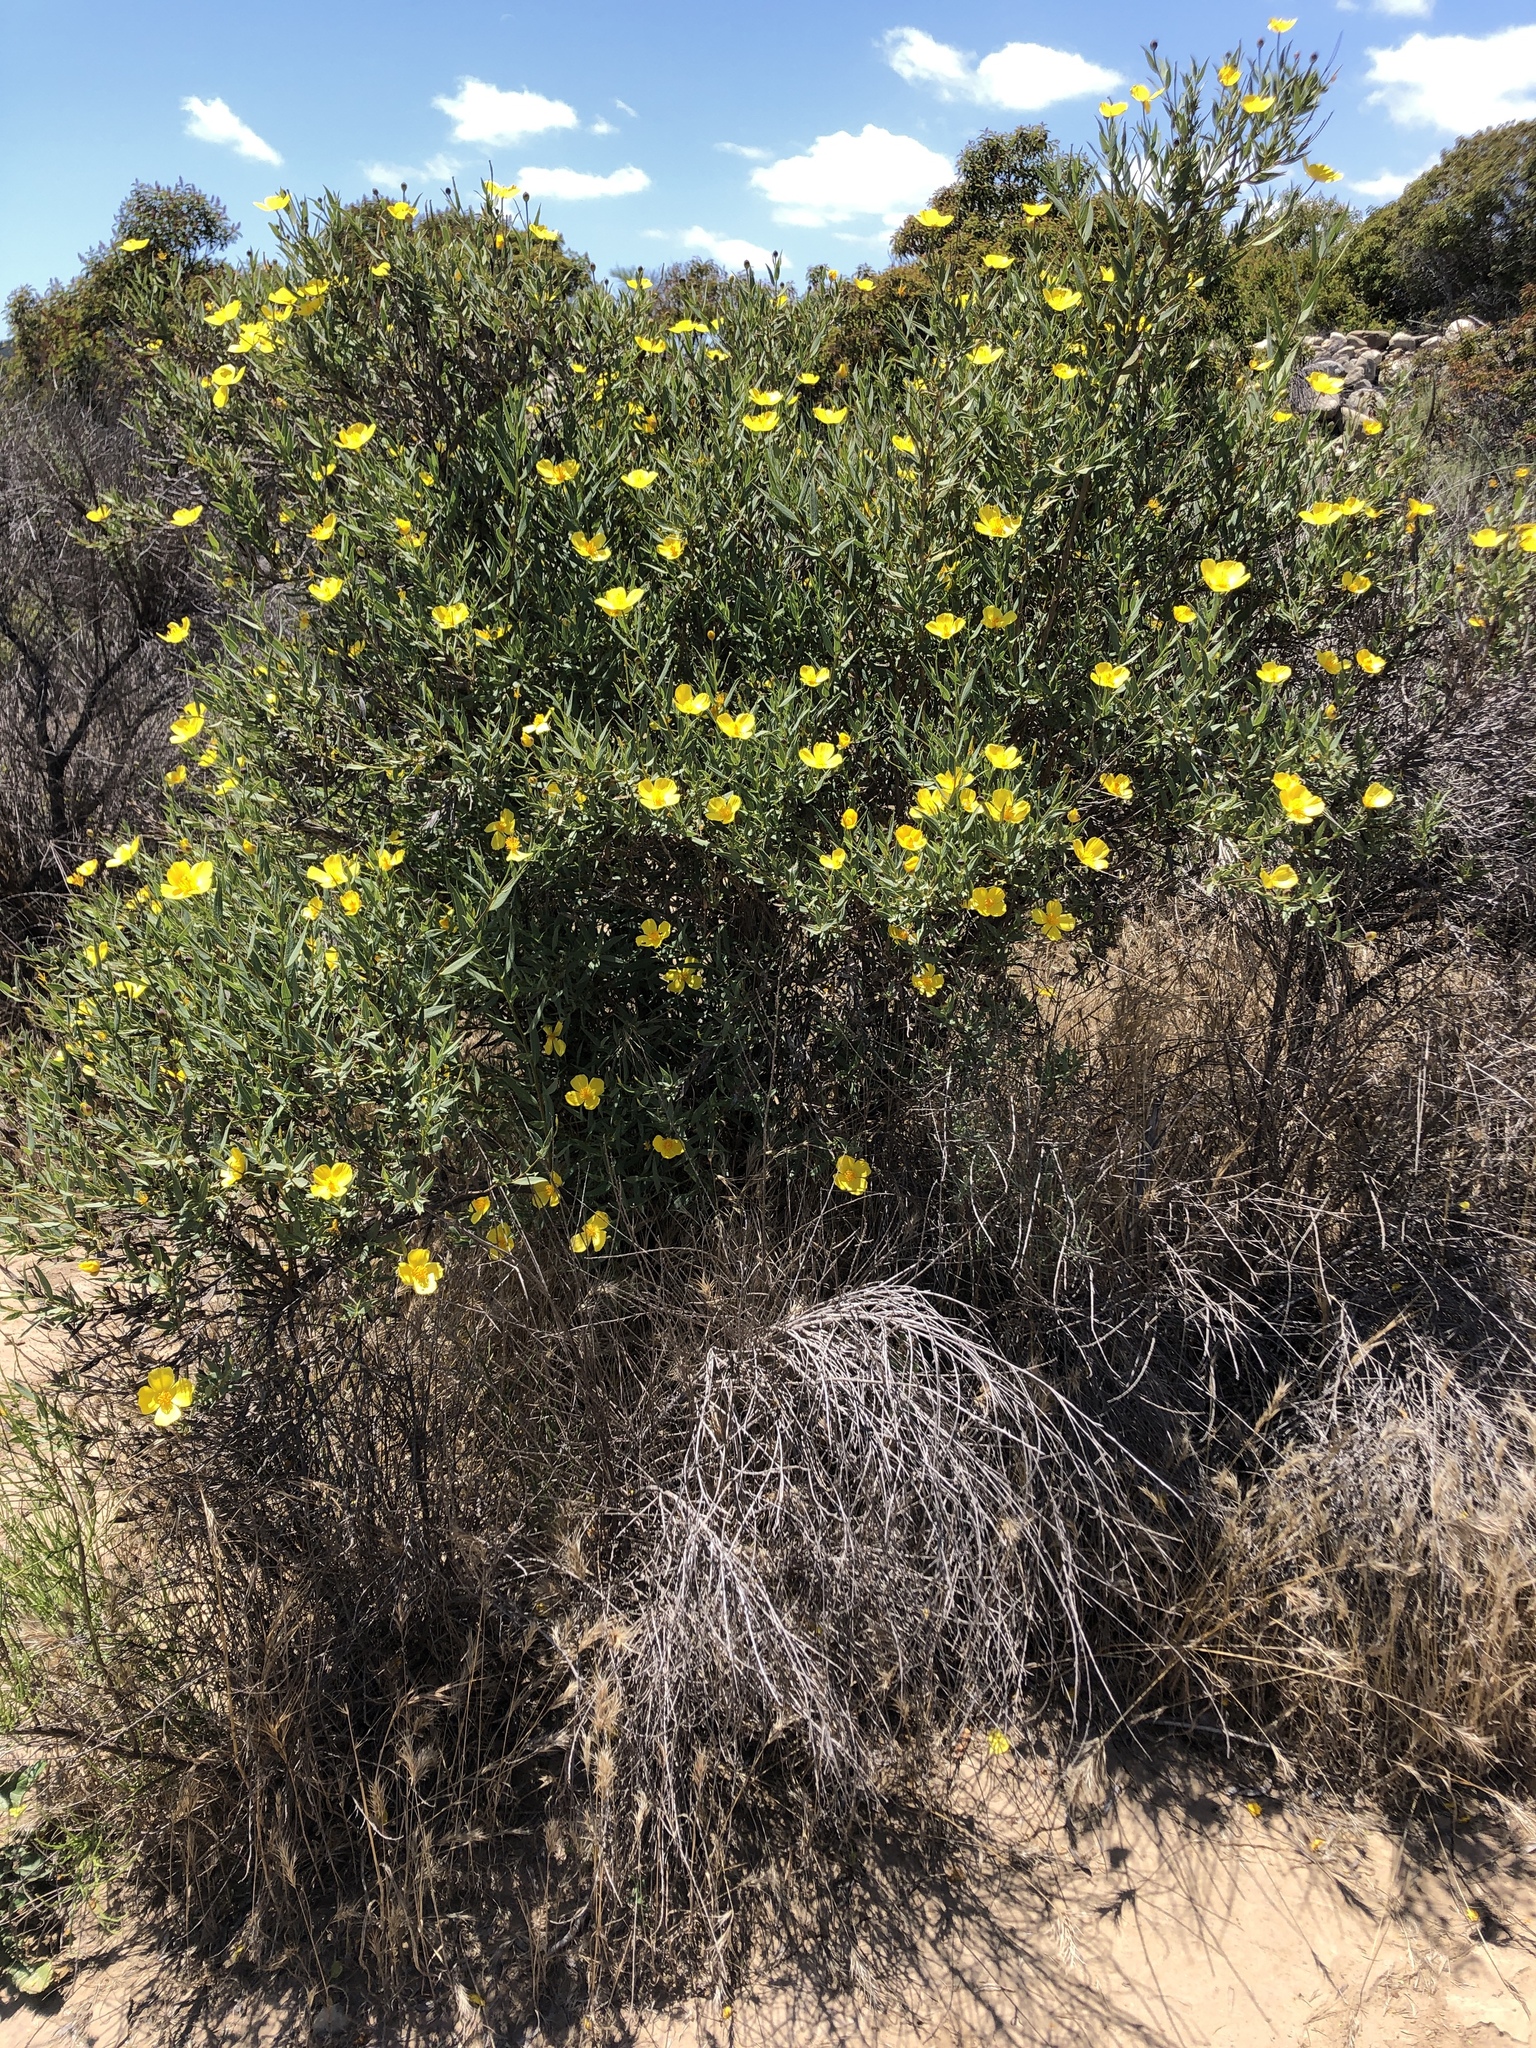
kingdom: Plantae
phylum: Tracheophyta
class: Magnoliopsida
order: Ranunculales
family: Papaveraceae
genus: Dendromecon
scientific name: Dendromecon rigida
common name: Tree poppy
